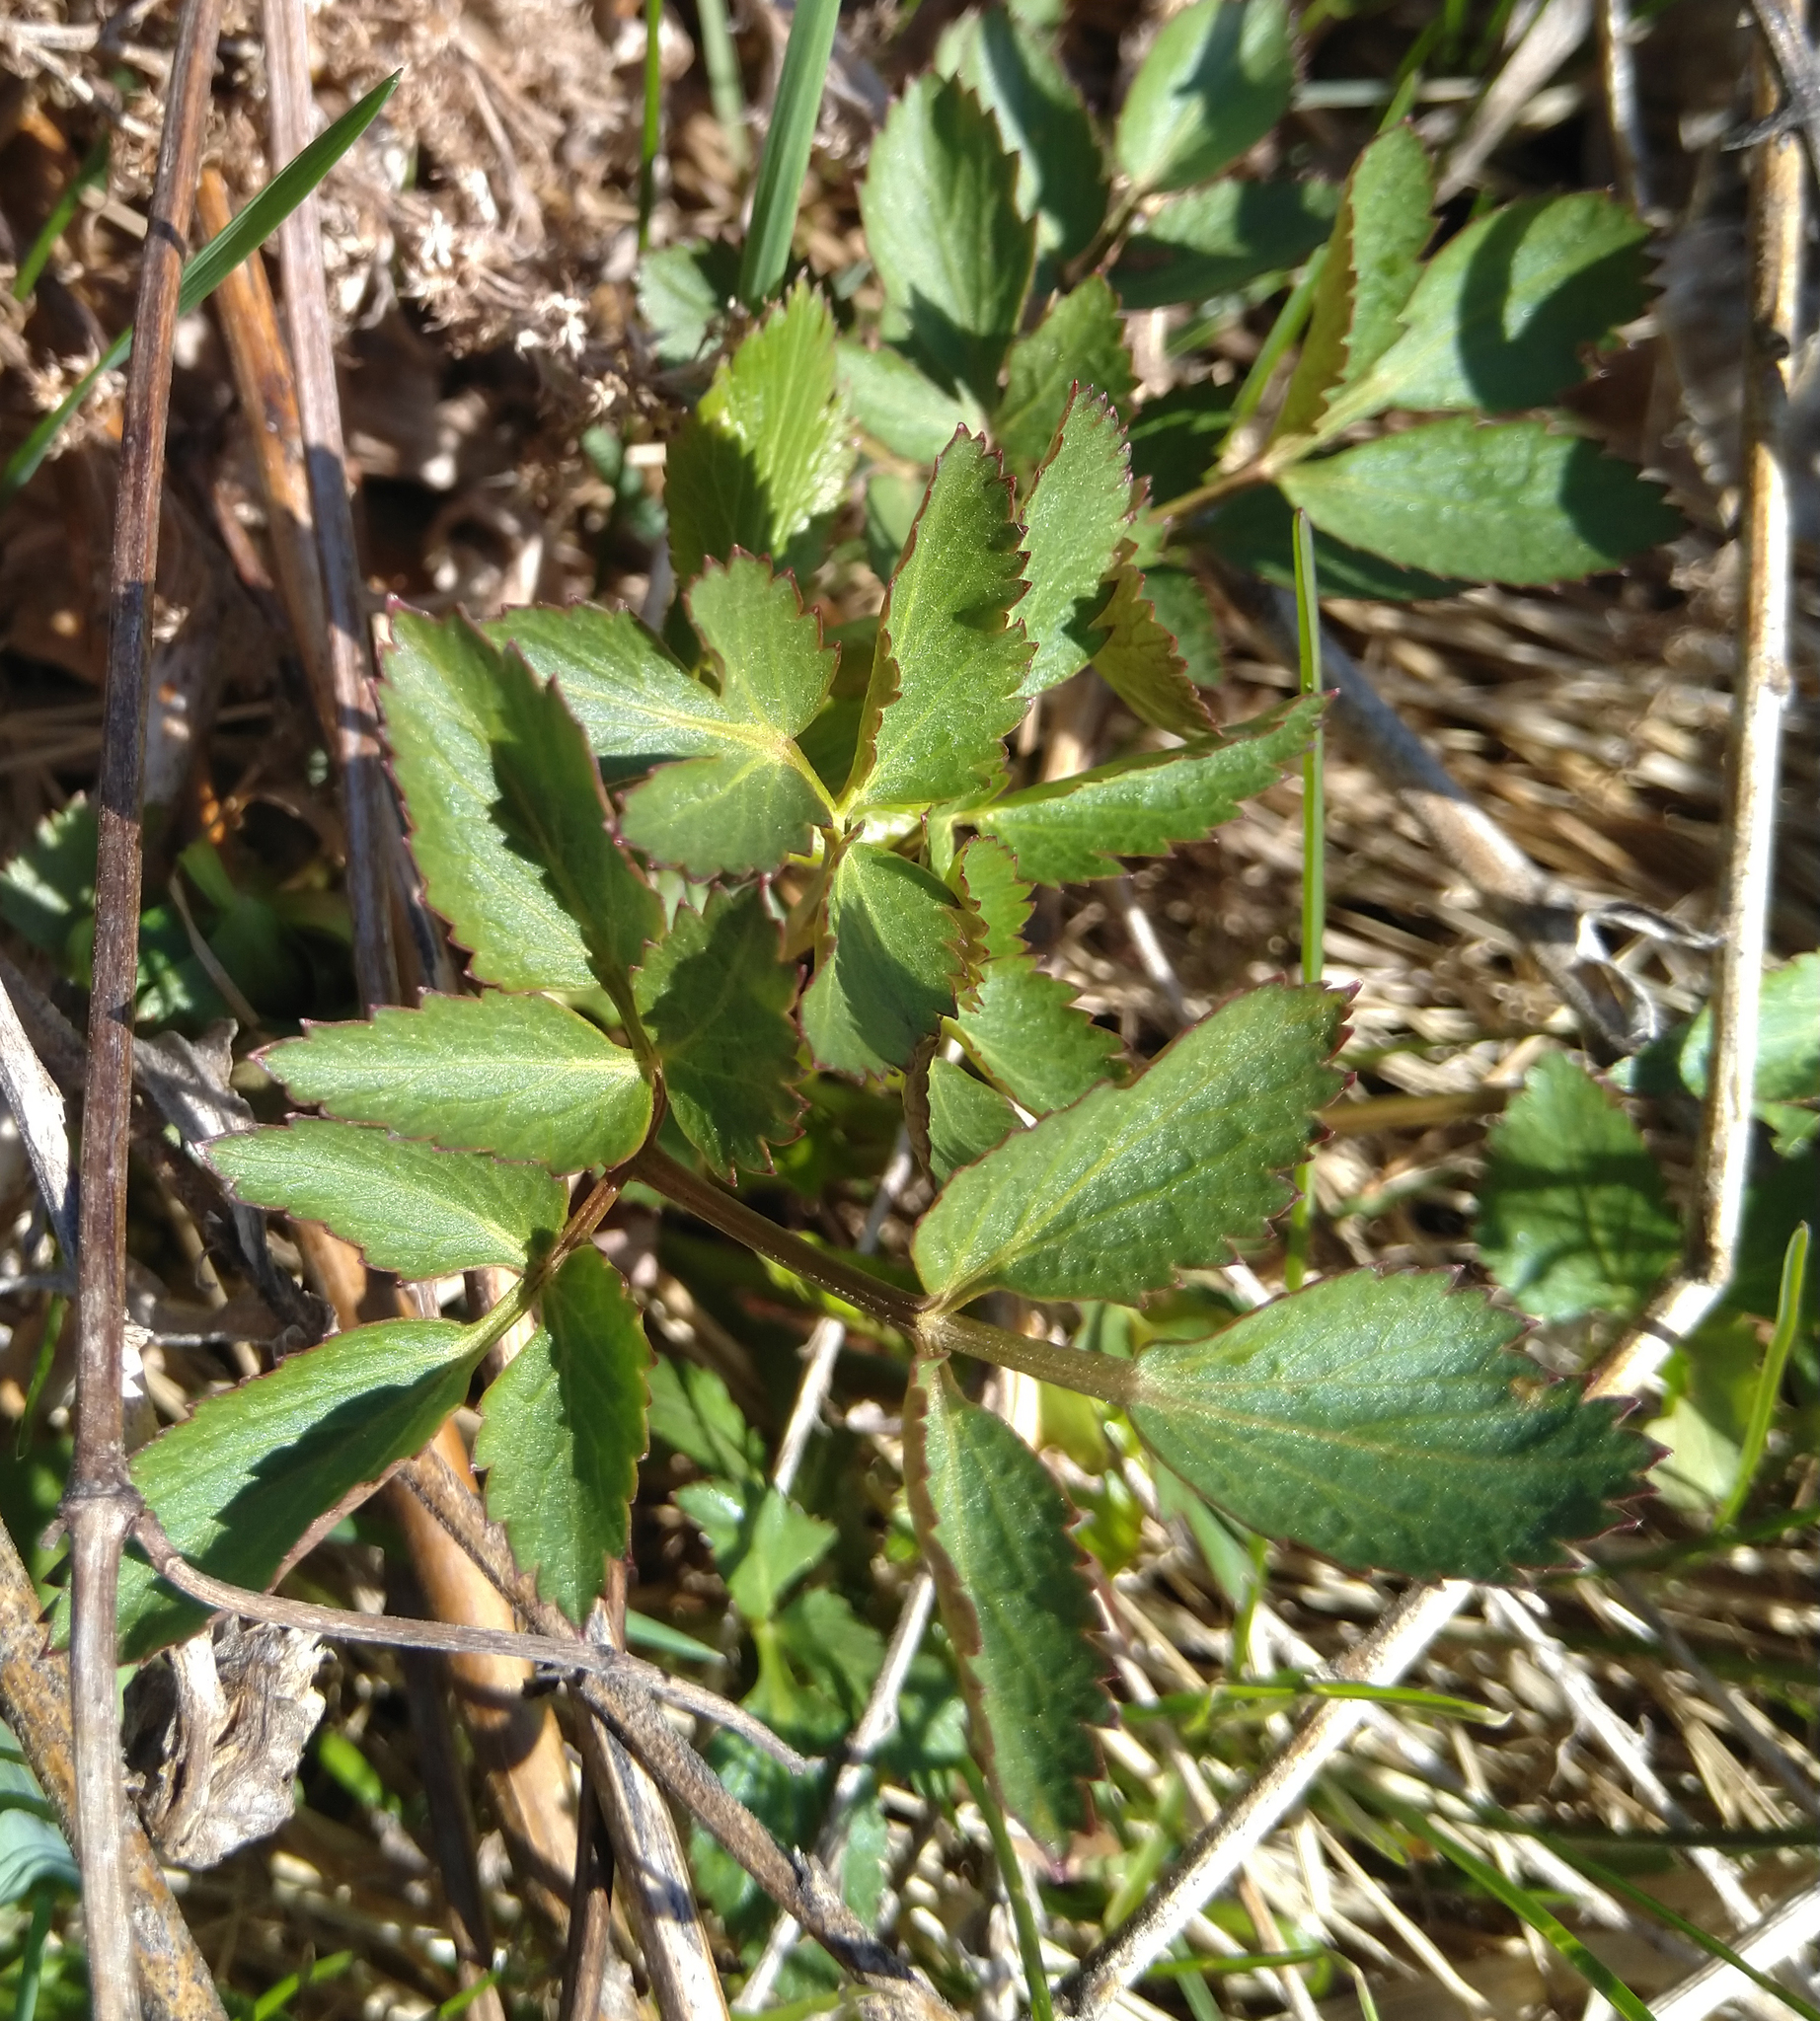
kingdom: Plantae
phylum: Tracheophyta
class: Magnoliopsida
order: Apiales
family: Apiaceae
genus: Zizia
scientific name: Zizia aurea
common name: Golden alexanders
